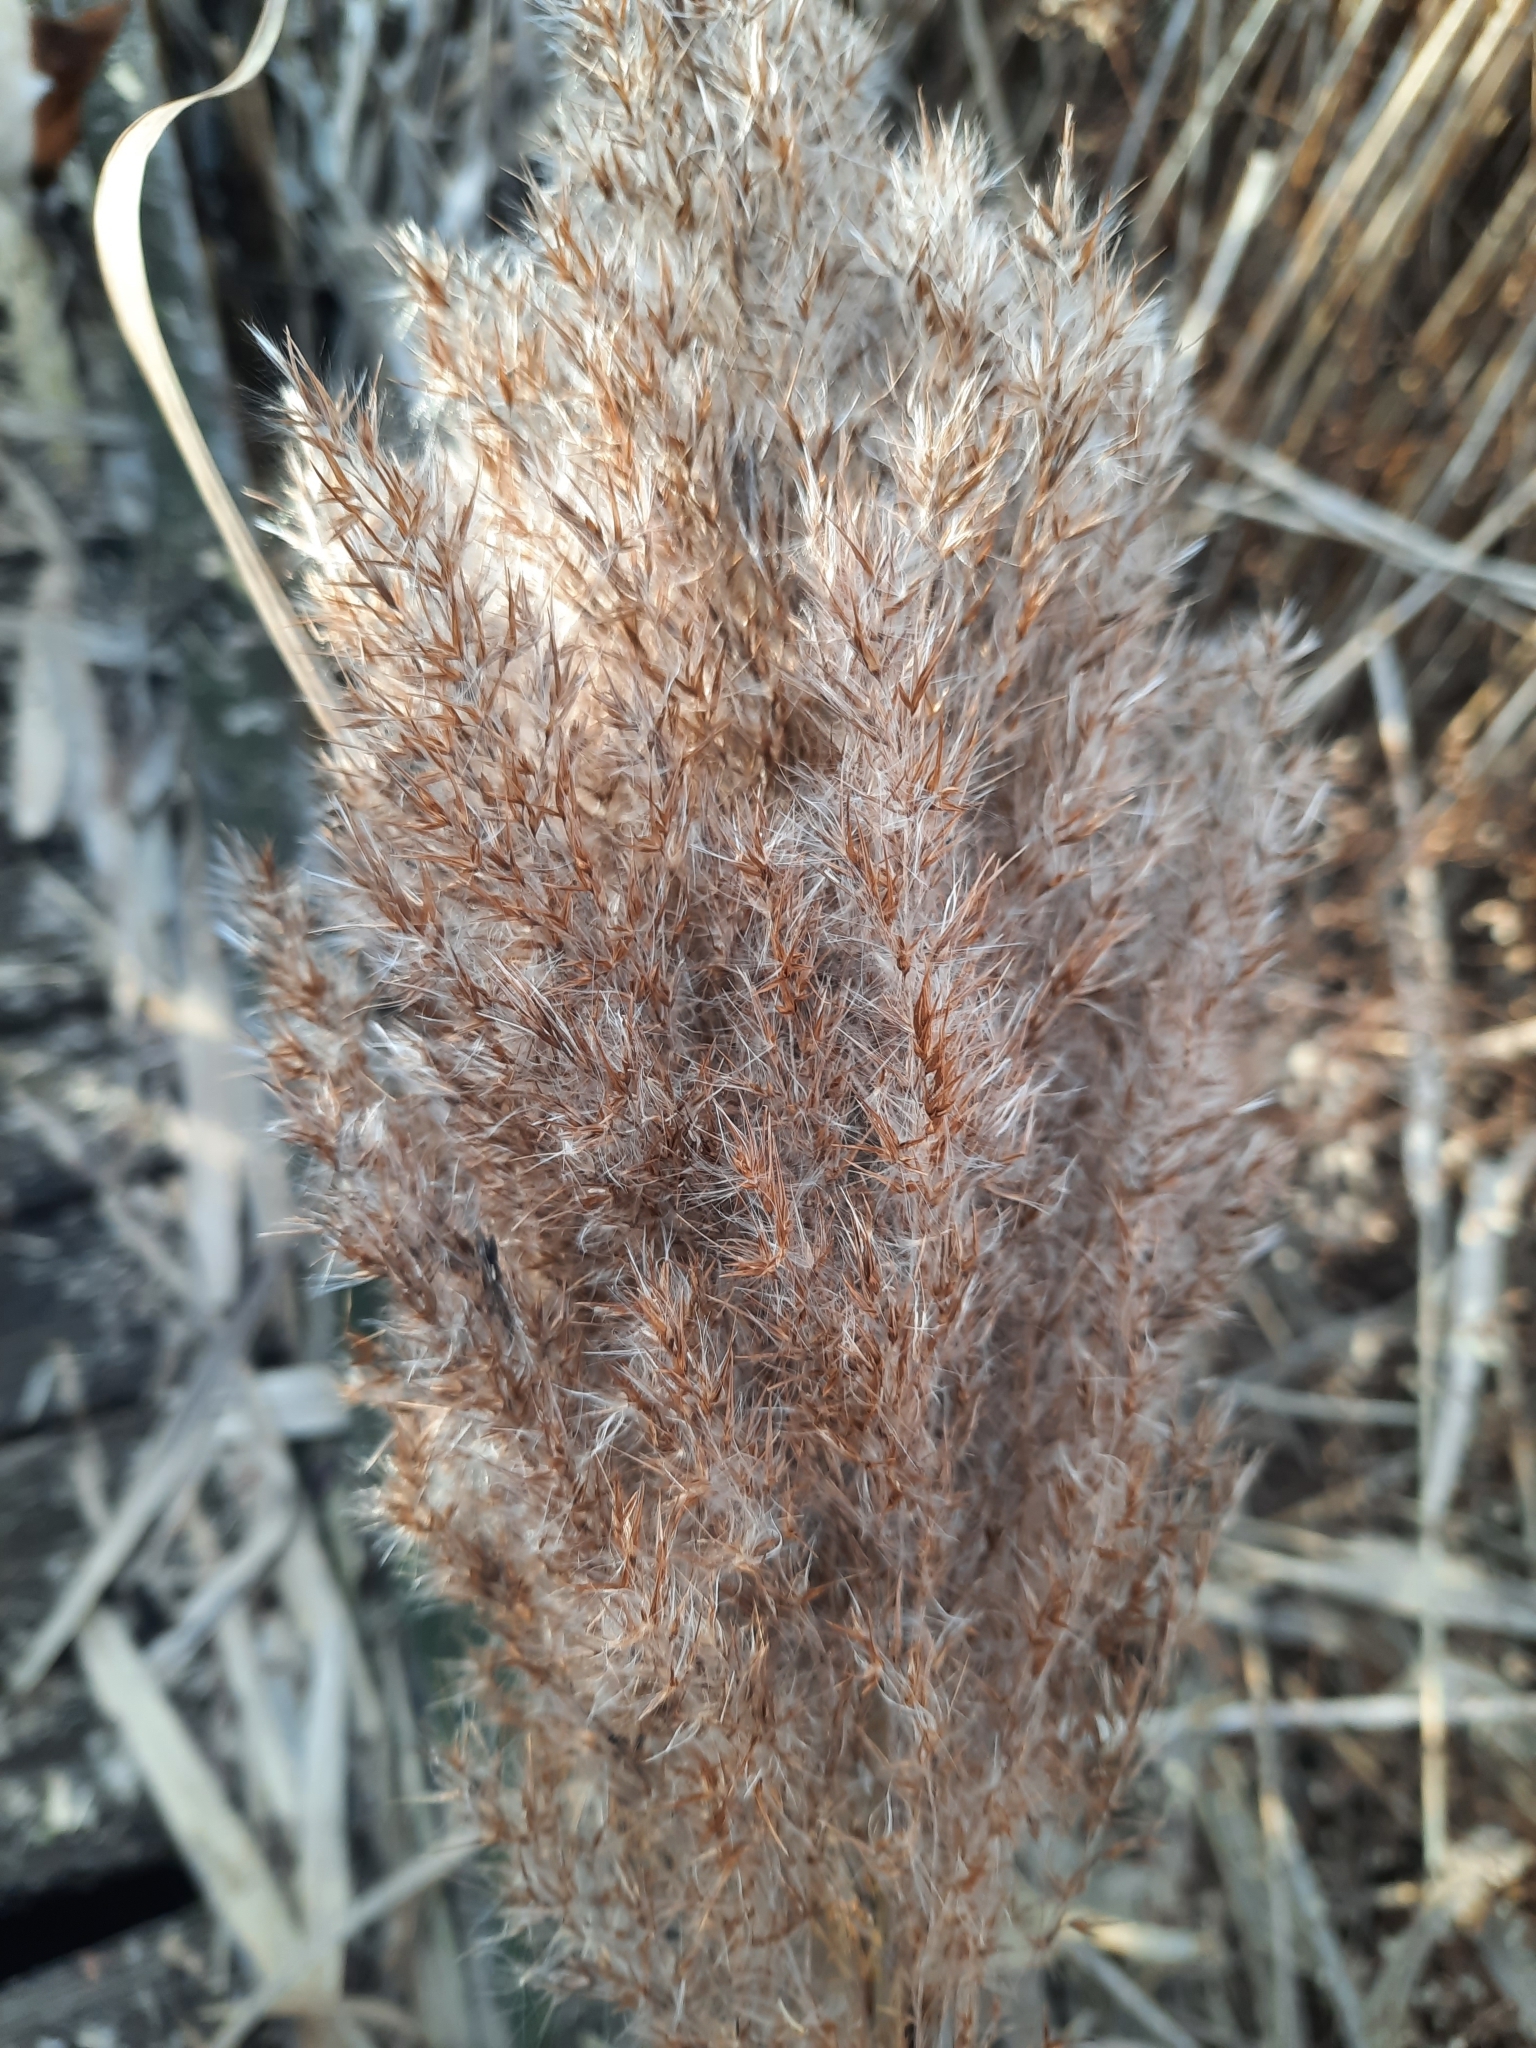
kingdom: Plantae
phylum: Tracheophyta
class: Liliopsida
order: Poales
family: Poaceae
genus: Phragmites
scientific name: Phragmites australis
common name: Common reed
